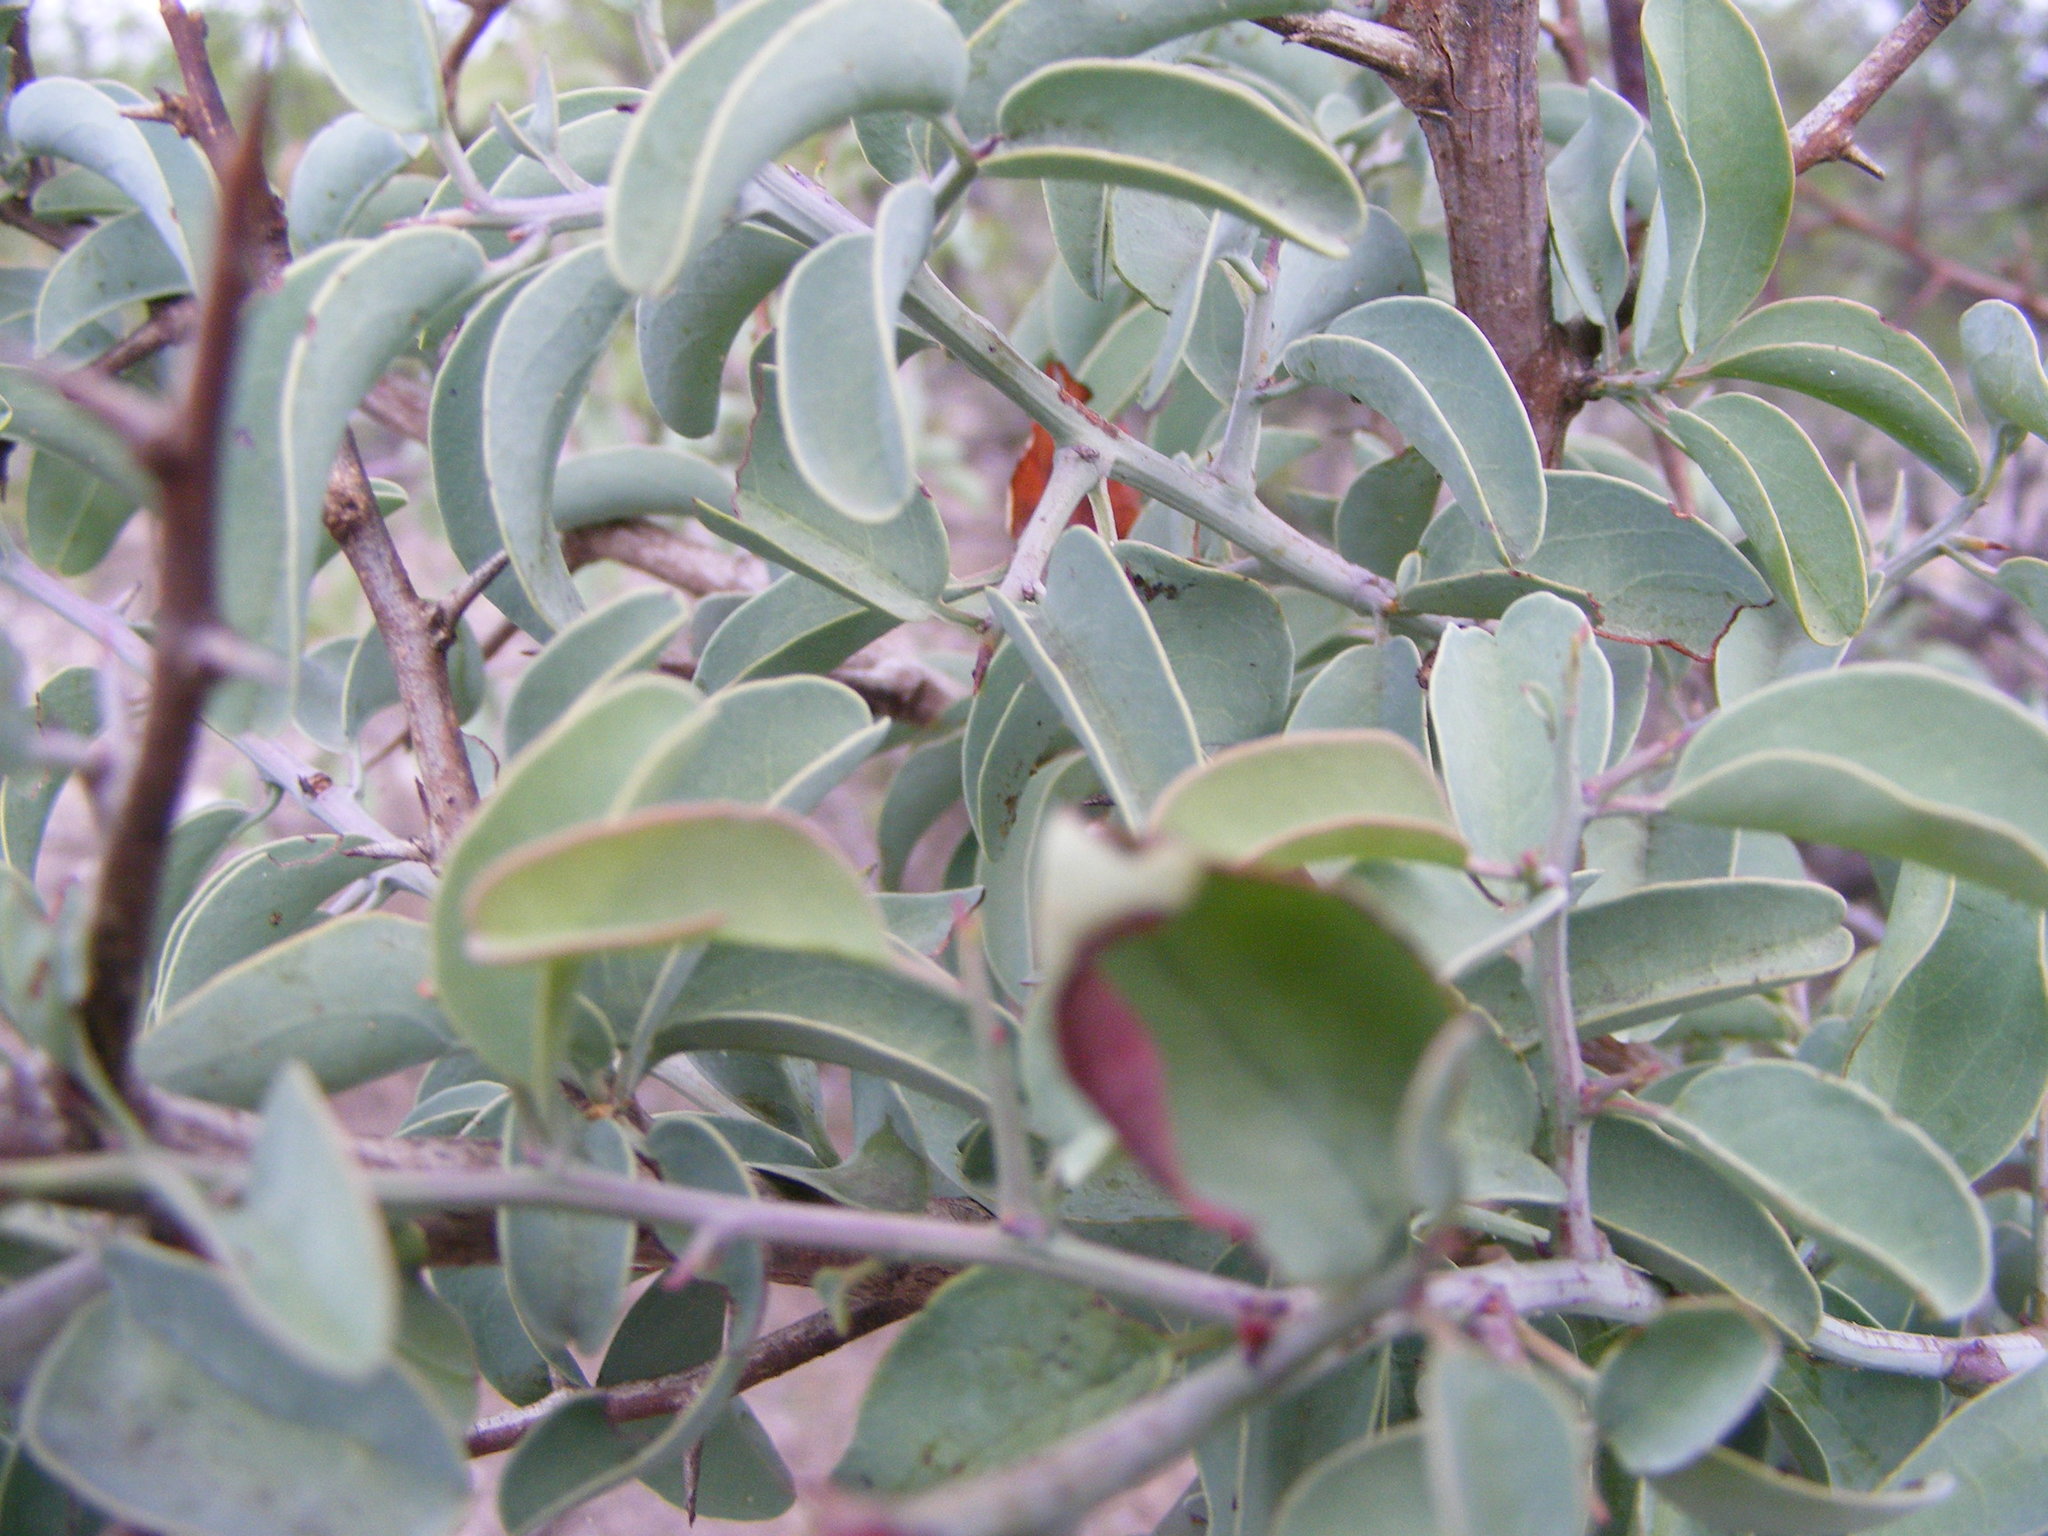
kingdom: Plantae
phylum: Tracheophyta
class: Magnoliopsida
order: Santalales
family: Ximeniaceae
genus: Ximenia
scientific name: Ximenia americana
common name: Tallowwood
